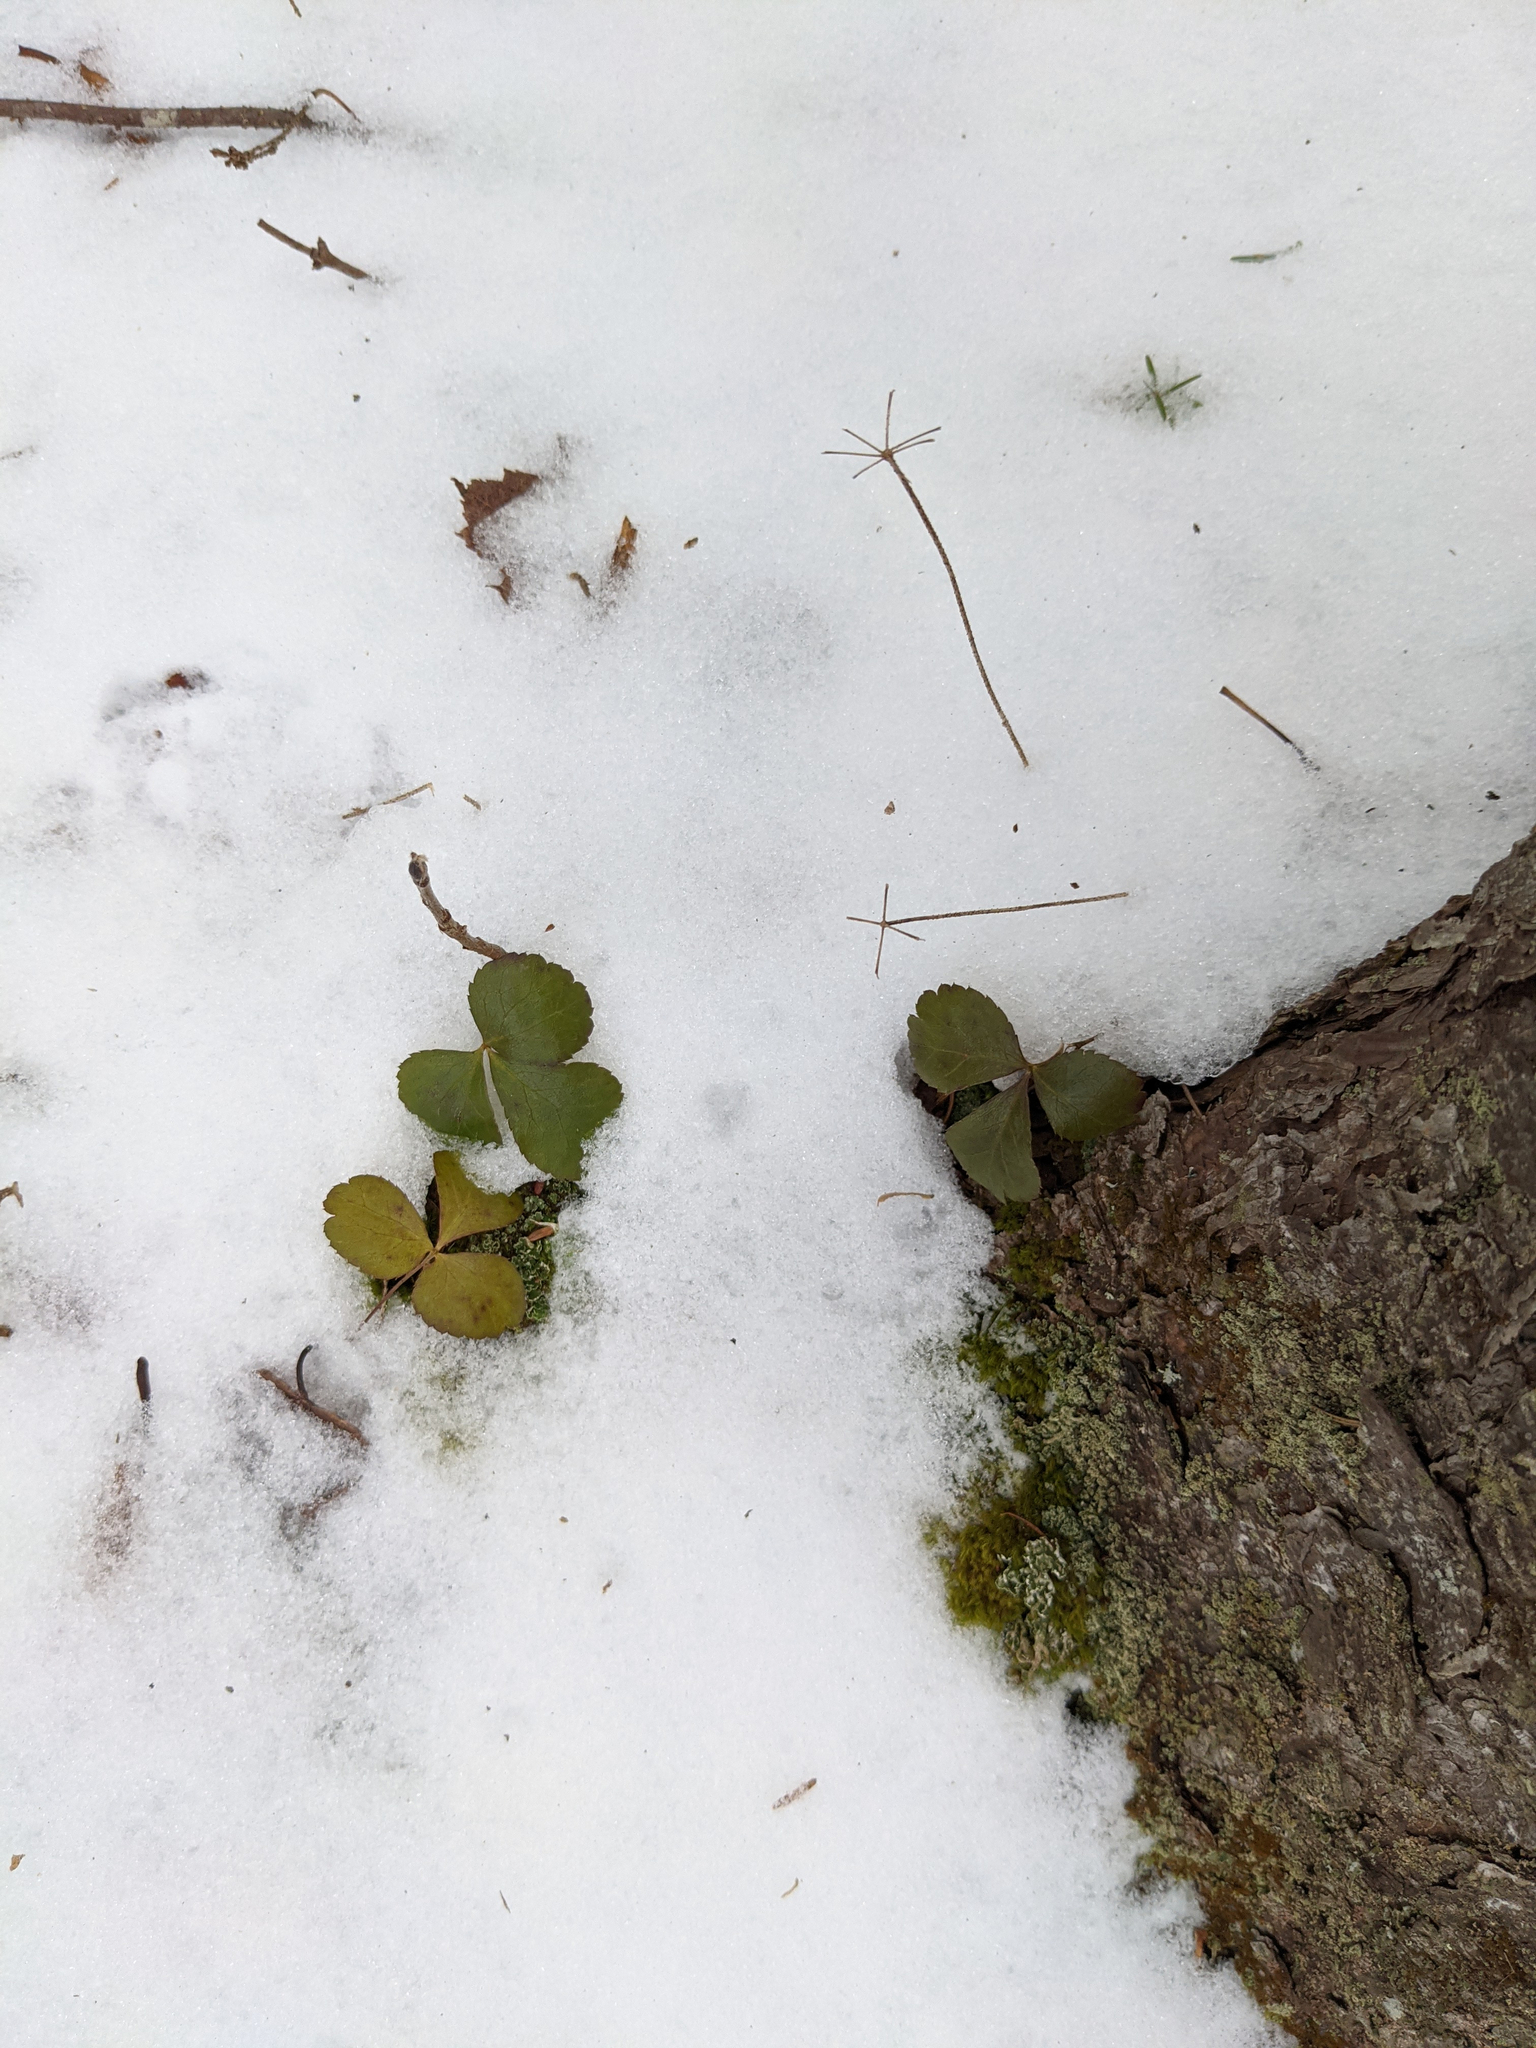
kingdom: Plantae
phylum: Tracheophyta
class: Magnoliopsida
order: Ranunculales
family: Ranunculaceae
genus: Coptis
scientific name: Coptis trifolia
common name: Canker-root
